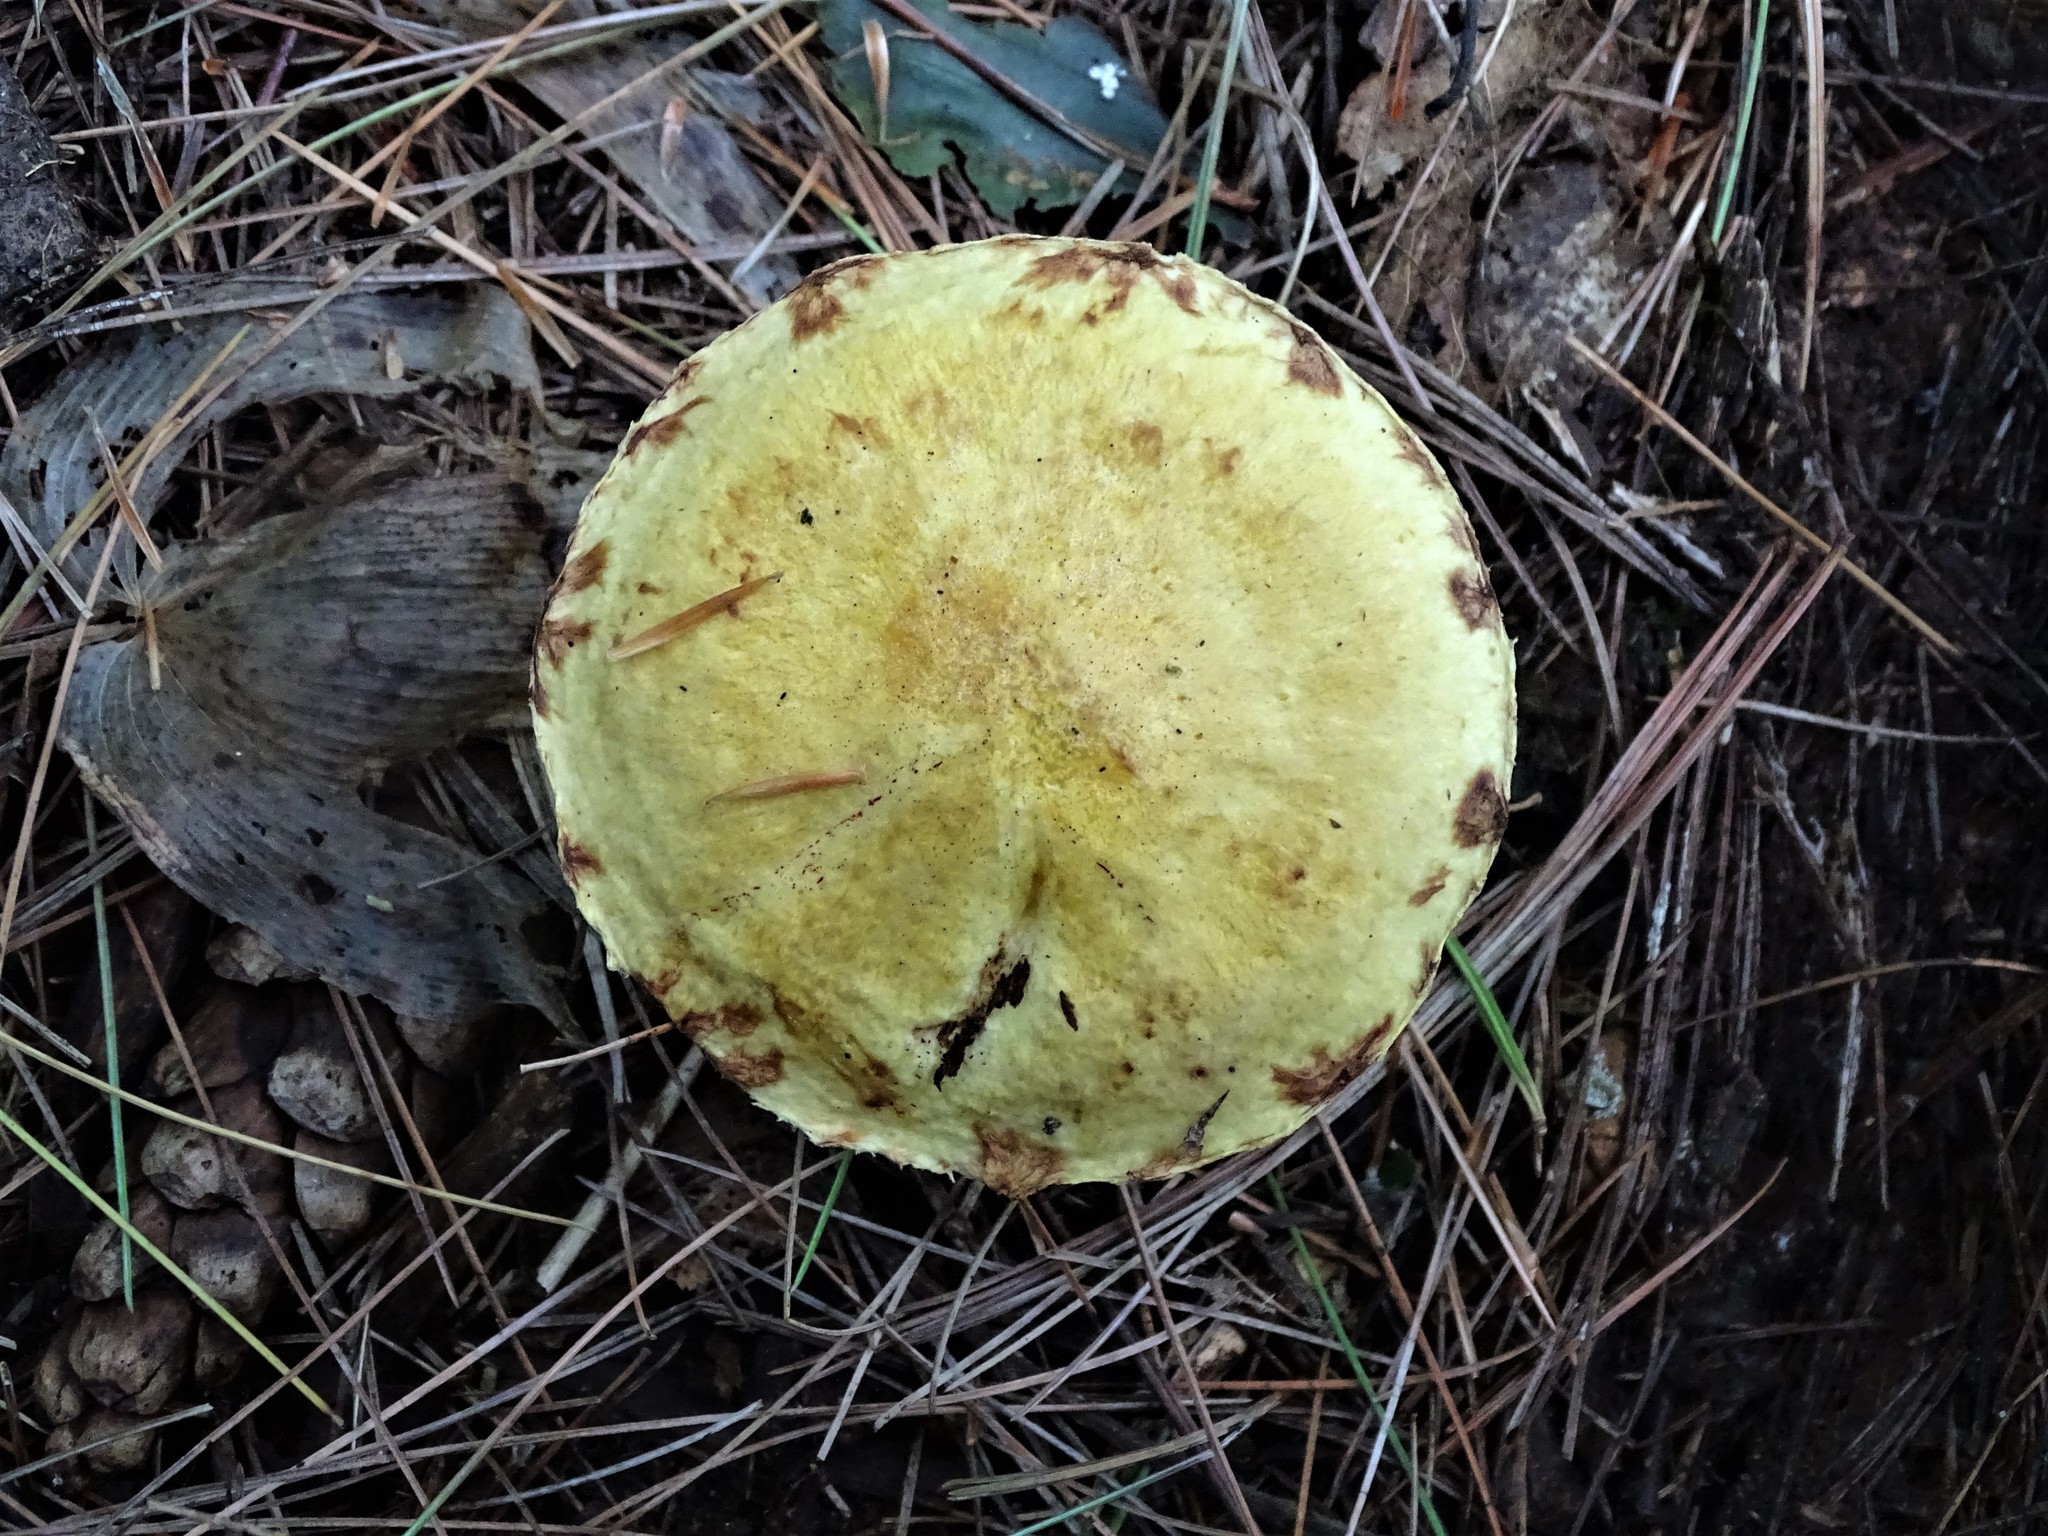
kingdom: Fungi
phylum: Basidiomycota
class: Agaricomycetes
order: Boletales
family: Suillaceae
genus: Suillus
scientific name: Suillus americanus
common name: Chicken fat mushroom
